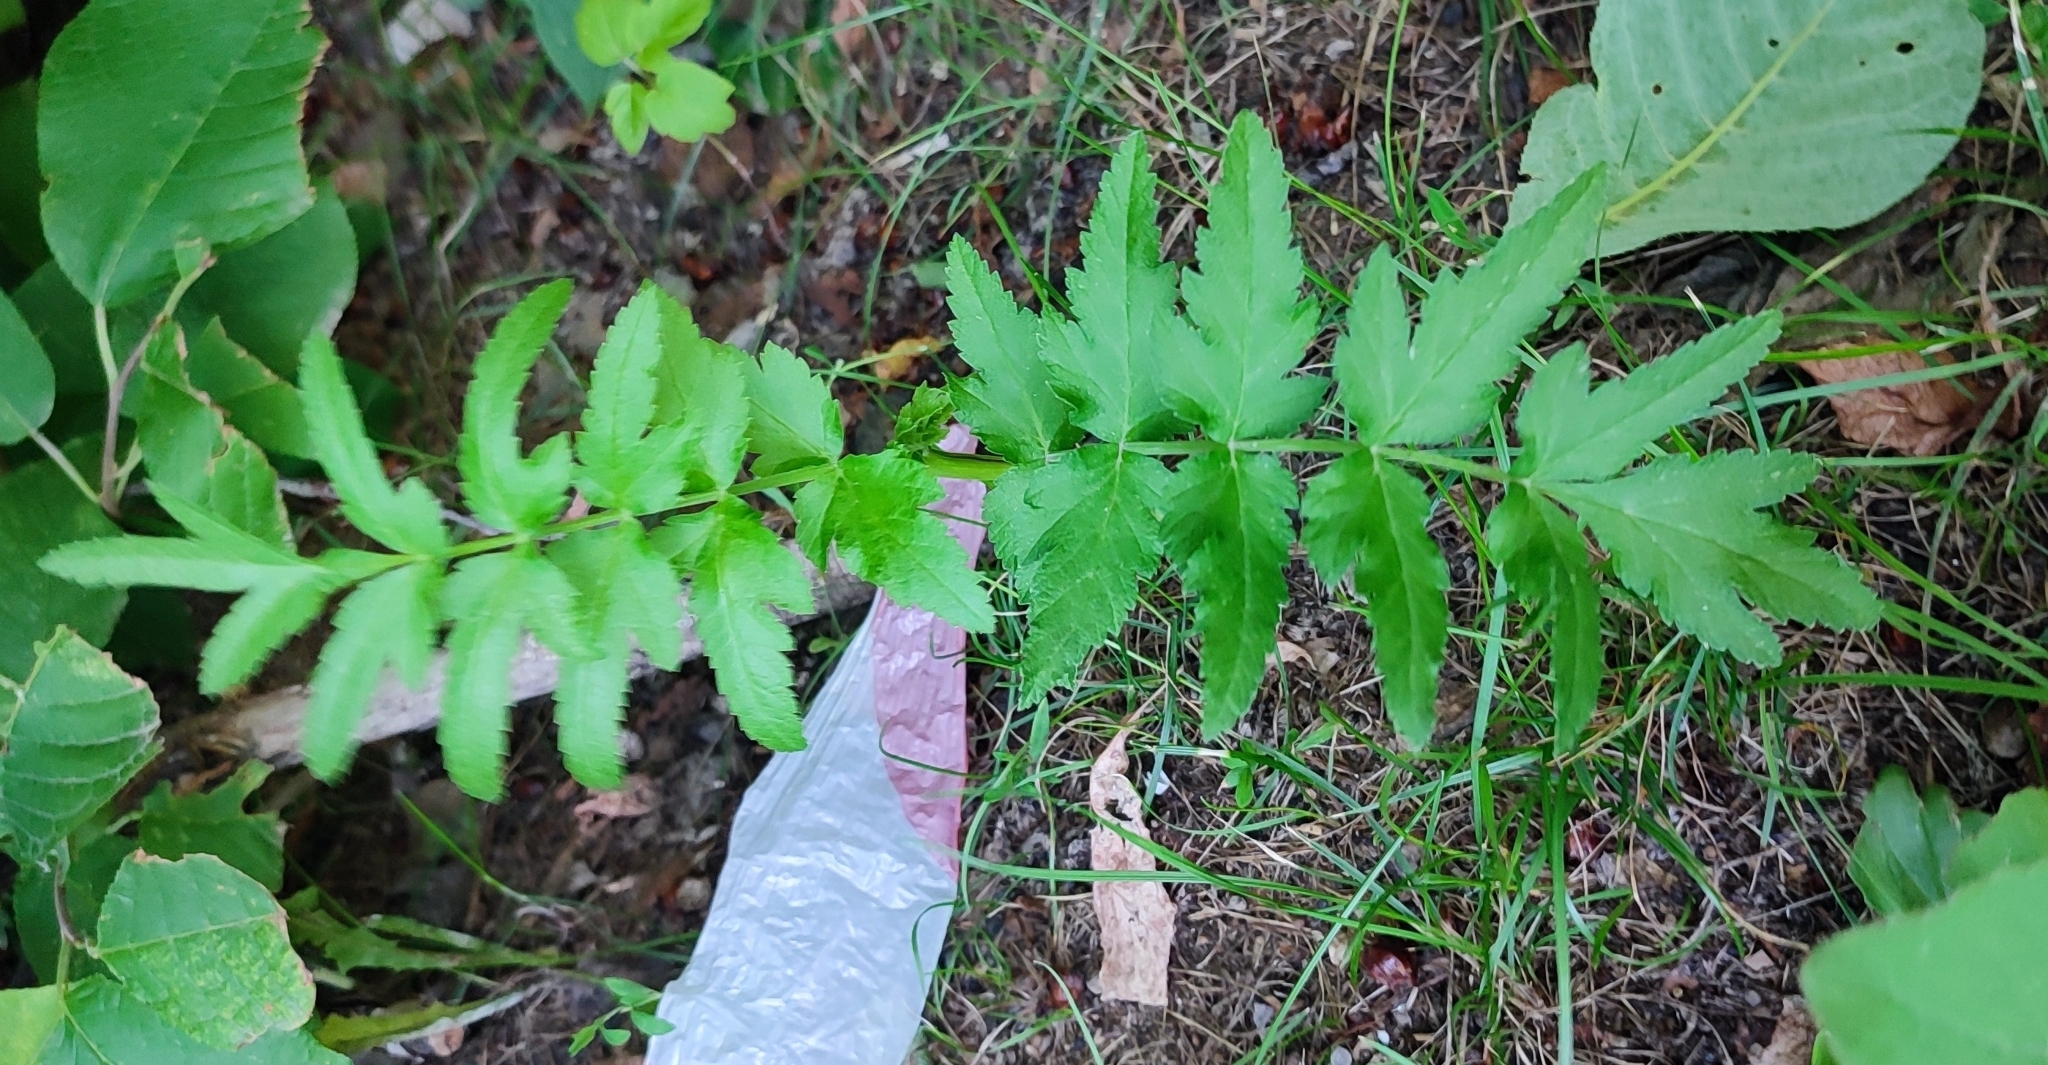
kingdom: Plantae
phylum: Tracheophyta
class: Magnoliopsida
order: Apiales
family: Apiaceae
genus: Pastinaca
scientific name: Pastinaca sativa
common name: Wild parsnip
